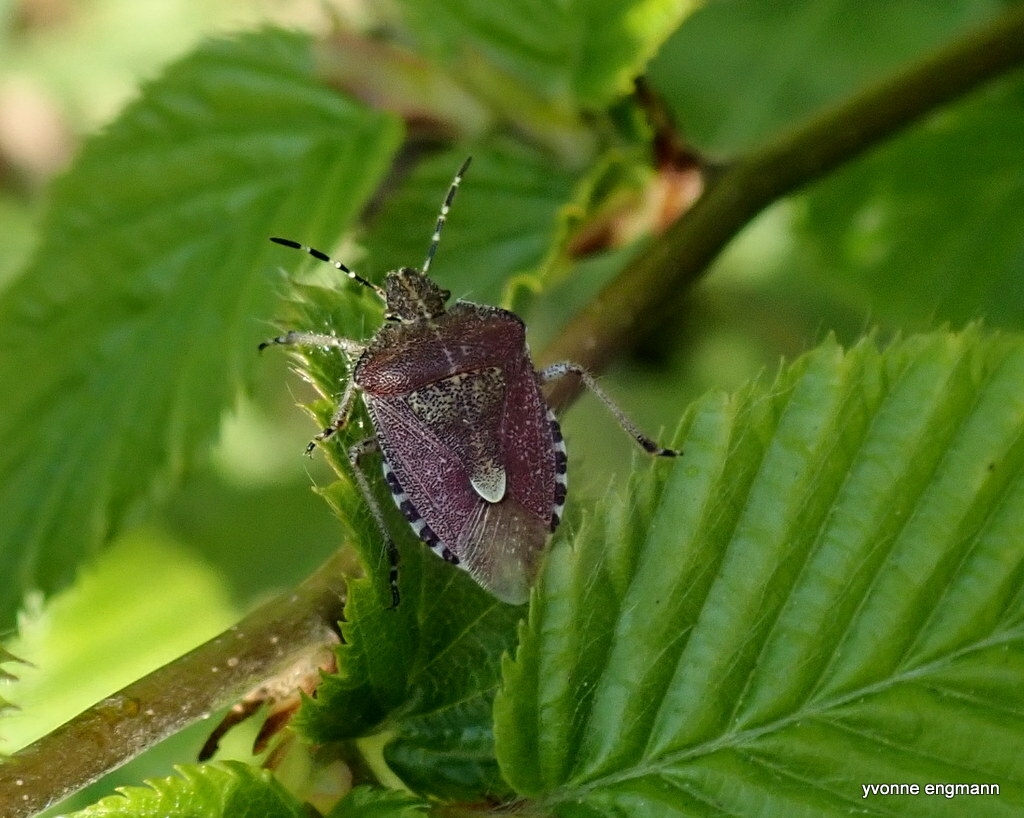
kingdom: Animalia
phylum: Arthropoda
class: Insecta
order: Hemiptera
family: Pentatomidae
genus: Dolycoris
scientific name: Dolycoris baccarum
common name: Sloe bug
